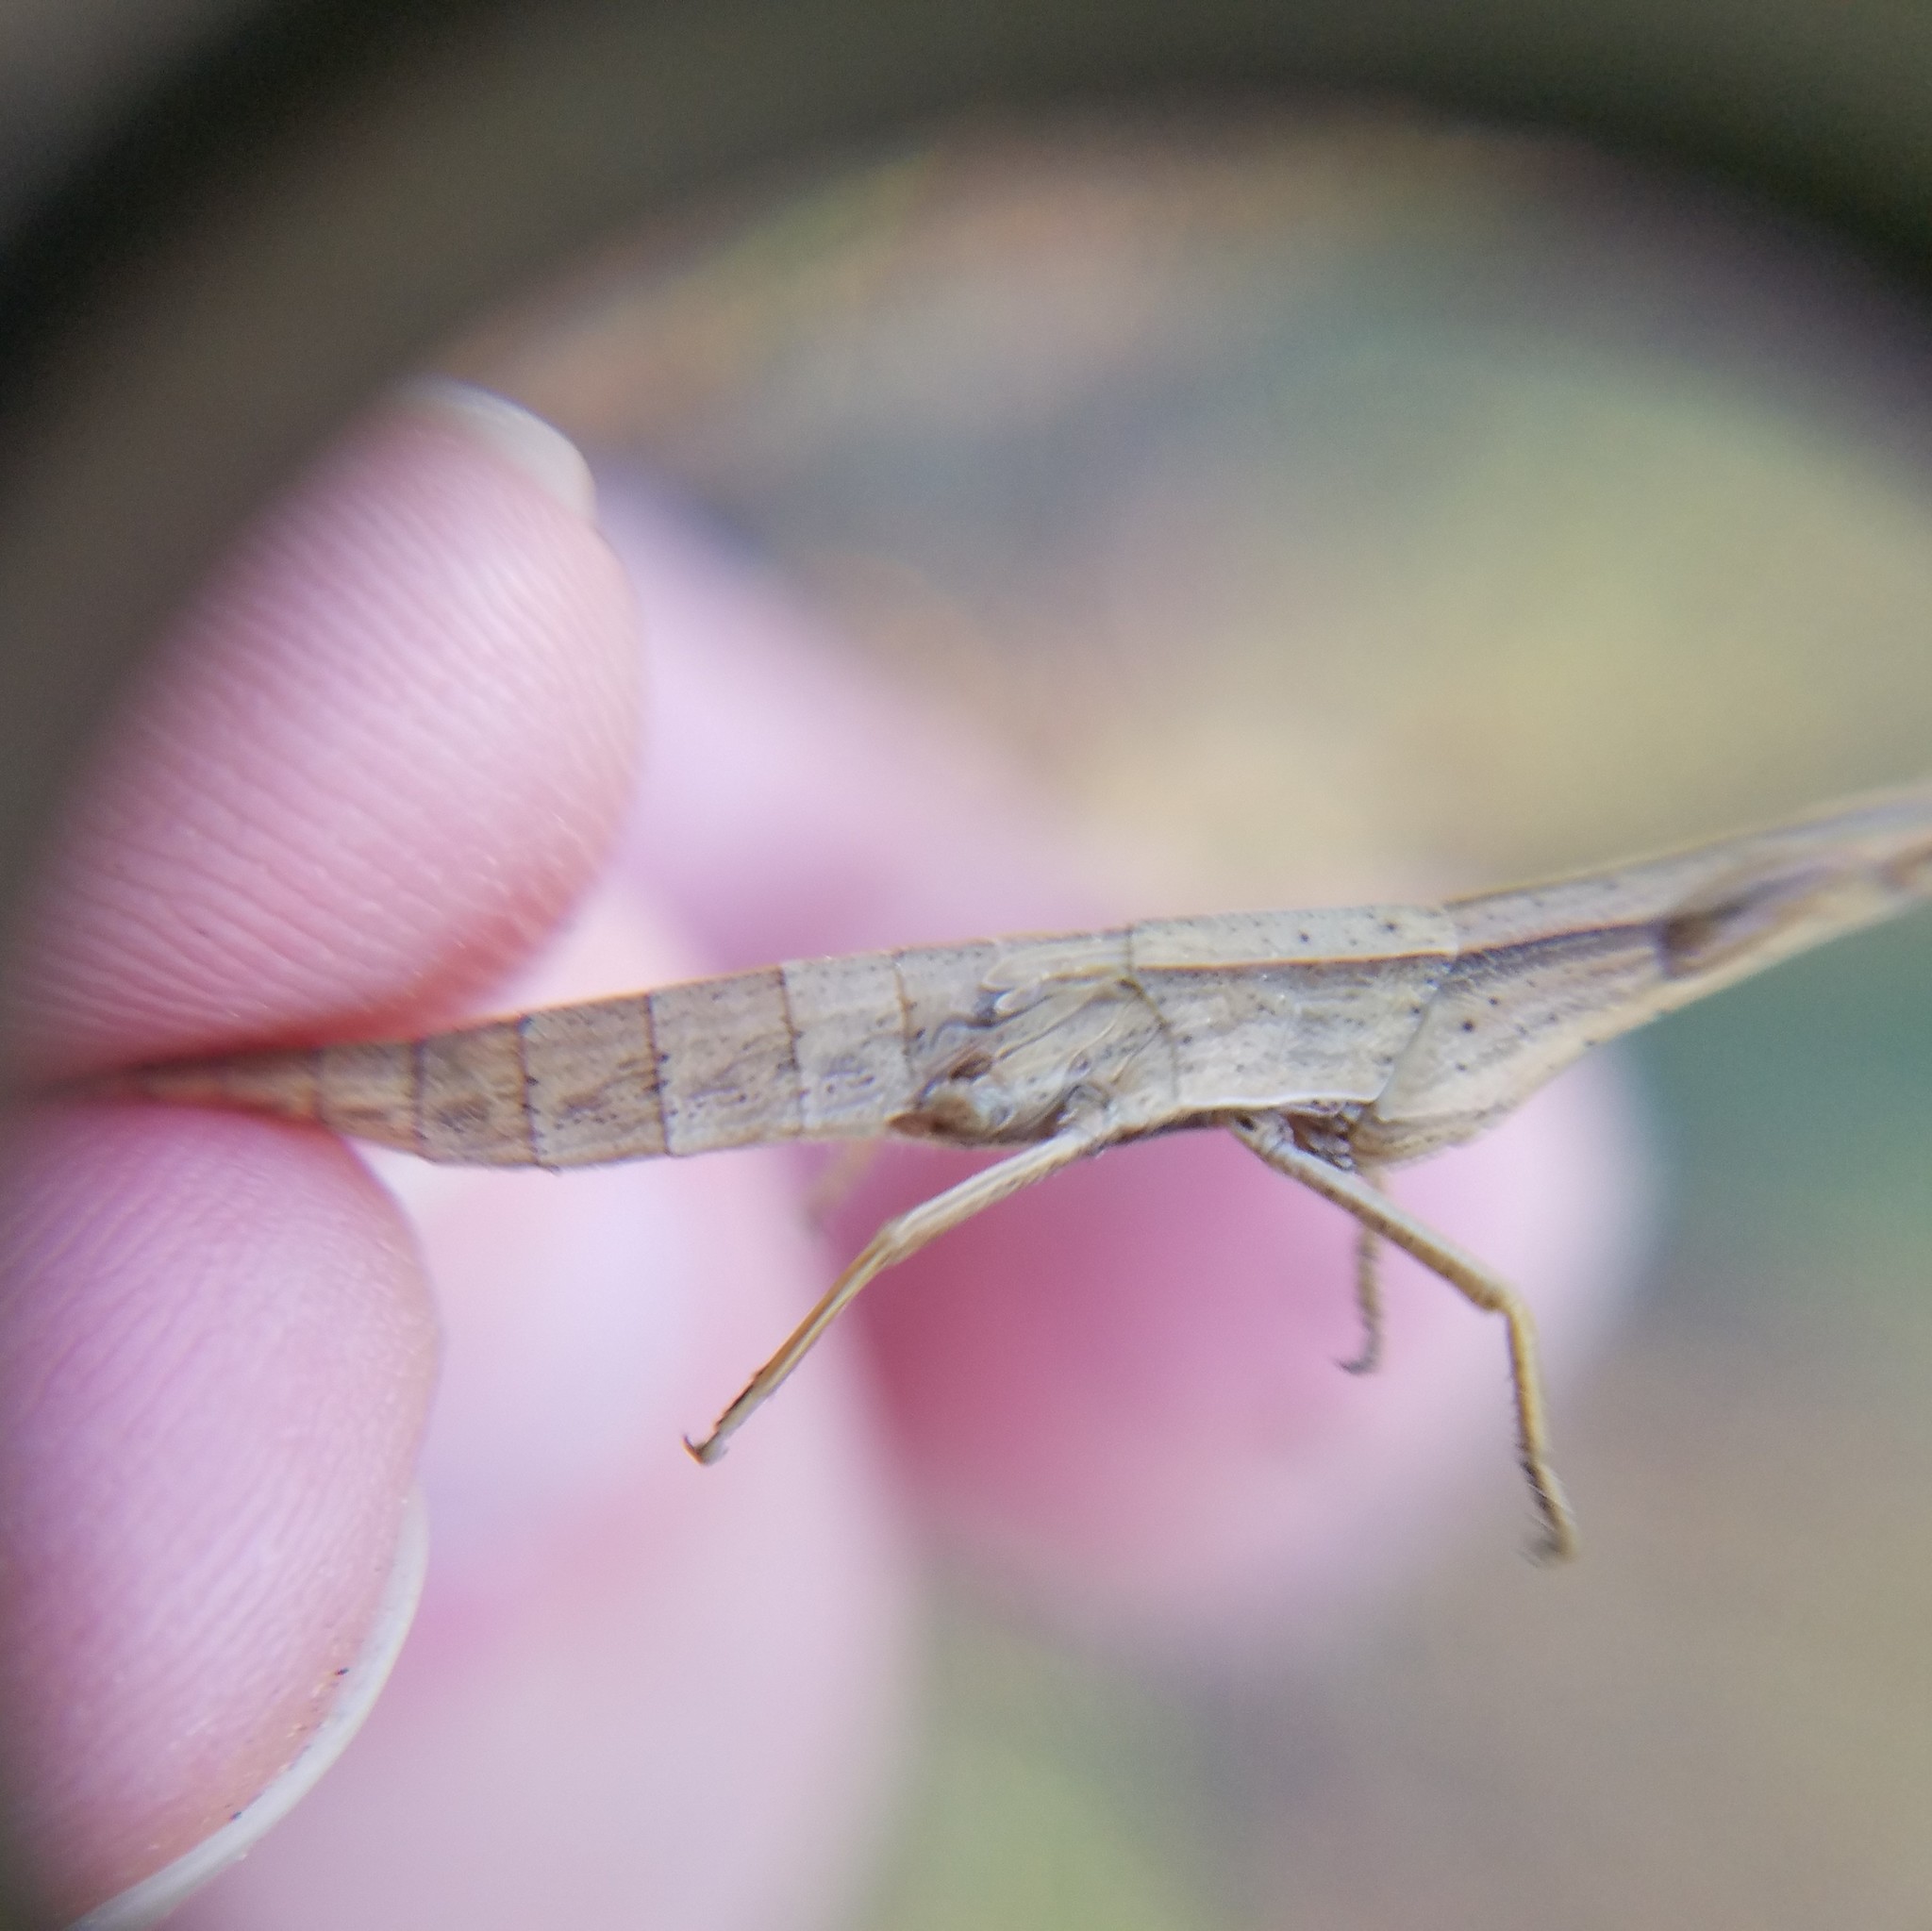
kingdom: Animalia
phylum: Arthropoda
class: Insecta
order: Orthoptera
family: Acrididae
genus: Achurum
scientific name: Achurum carinatum
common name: Long-headed toothpick grasshopper
